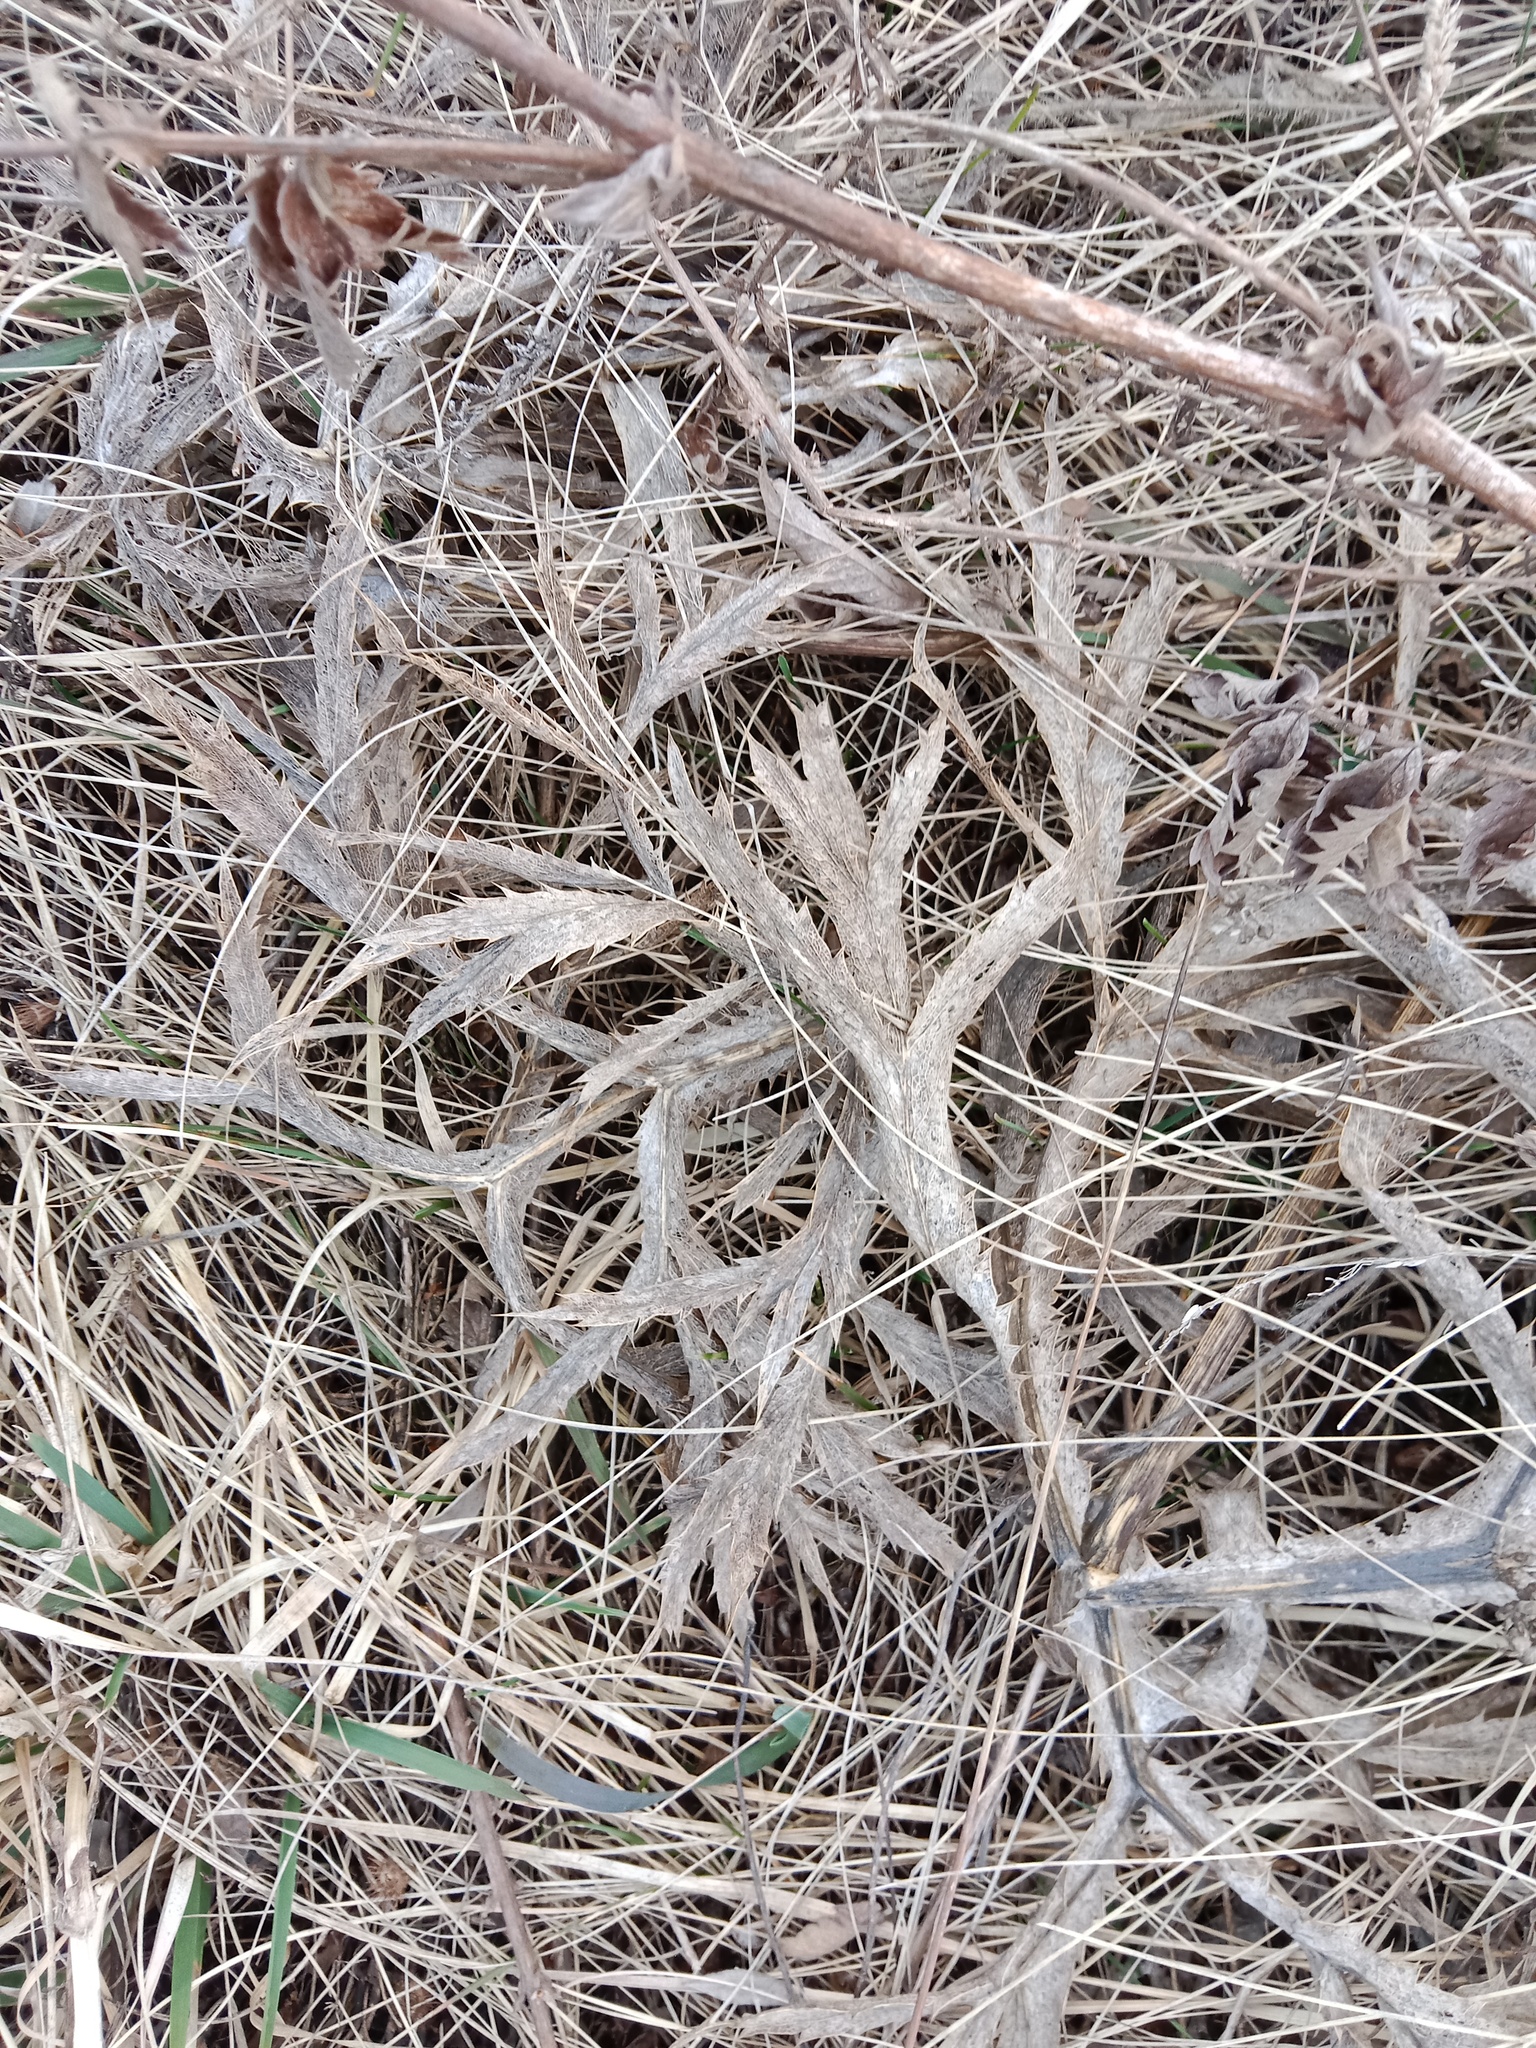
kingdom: Plantae
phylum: Tracheophyta
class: Magnoliopsida
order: Apiales
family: Apiaceae
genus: Eryngium
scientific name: Eryngium campestre
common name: Field eryngo
